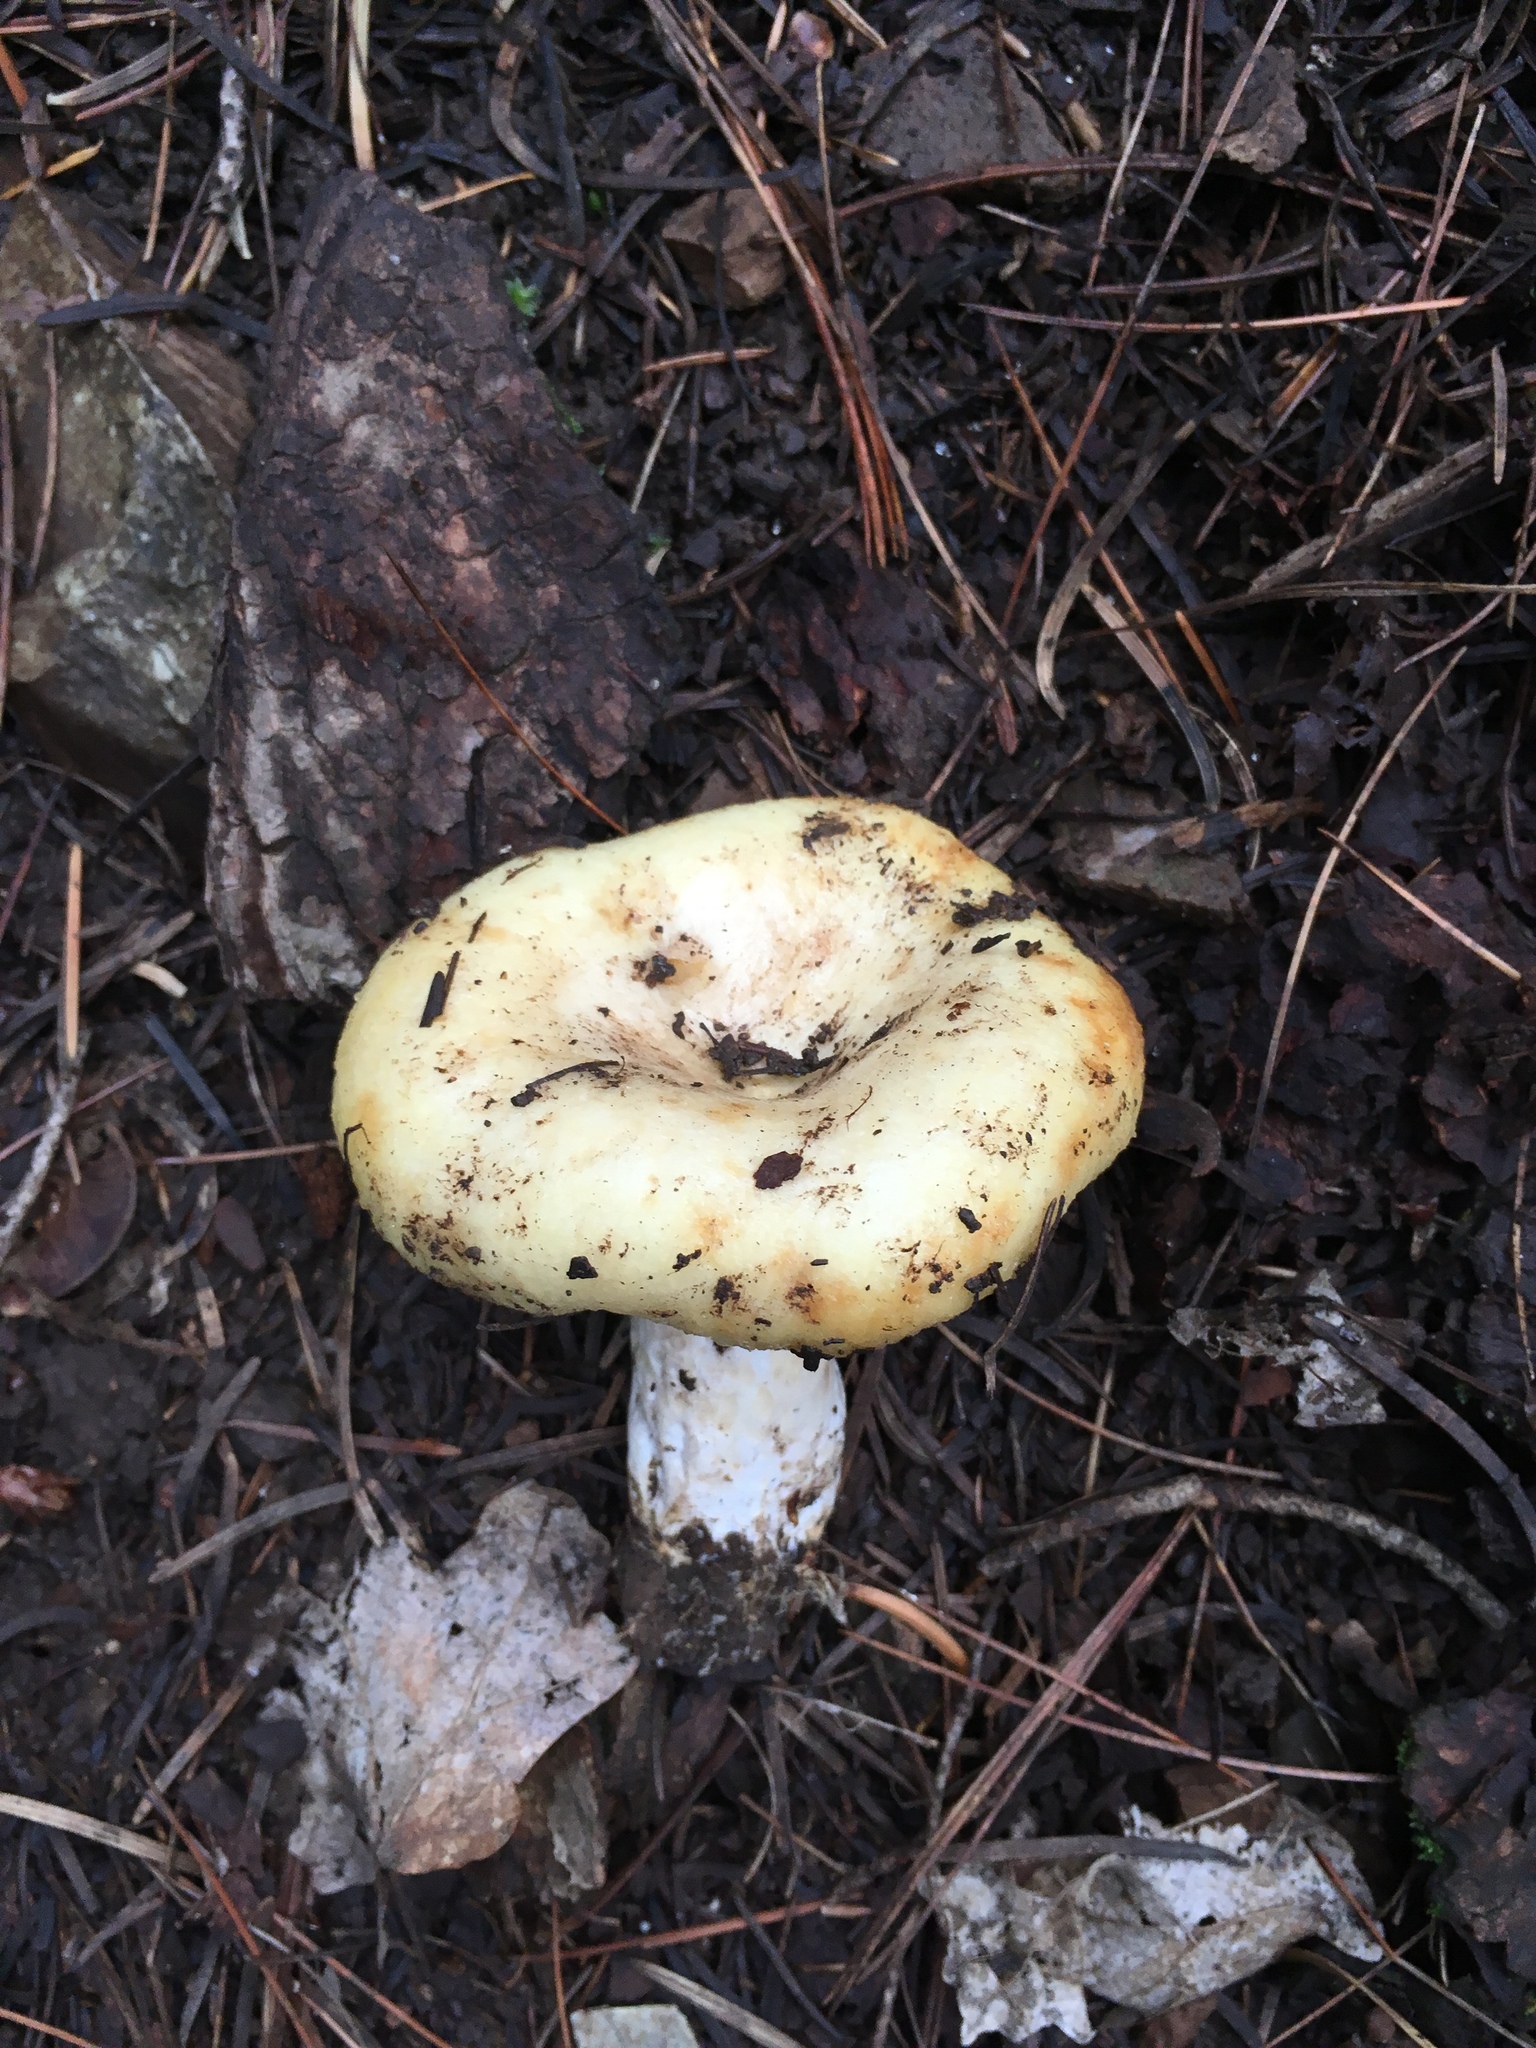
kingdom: Fungi
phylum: Basidiomycota
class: Agaricomycetes
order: Russulales
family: Russulaceae
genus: Lactarius
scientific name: Lactarius alnicola
